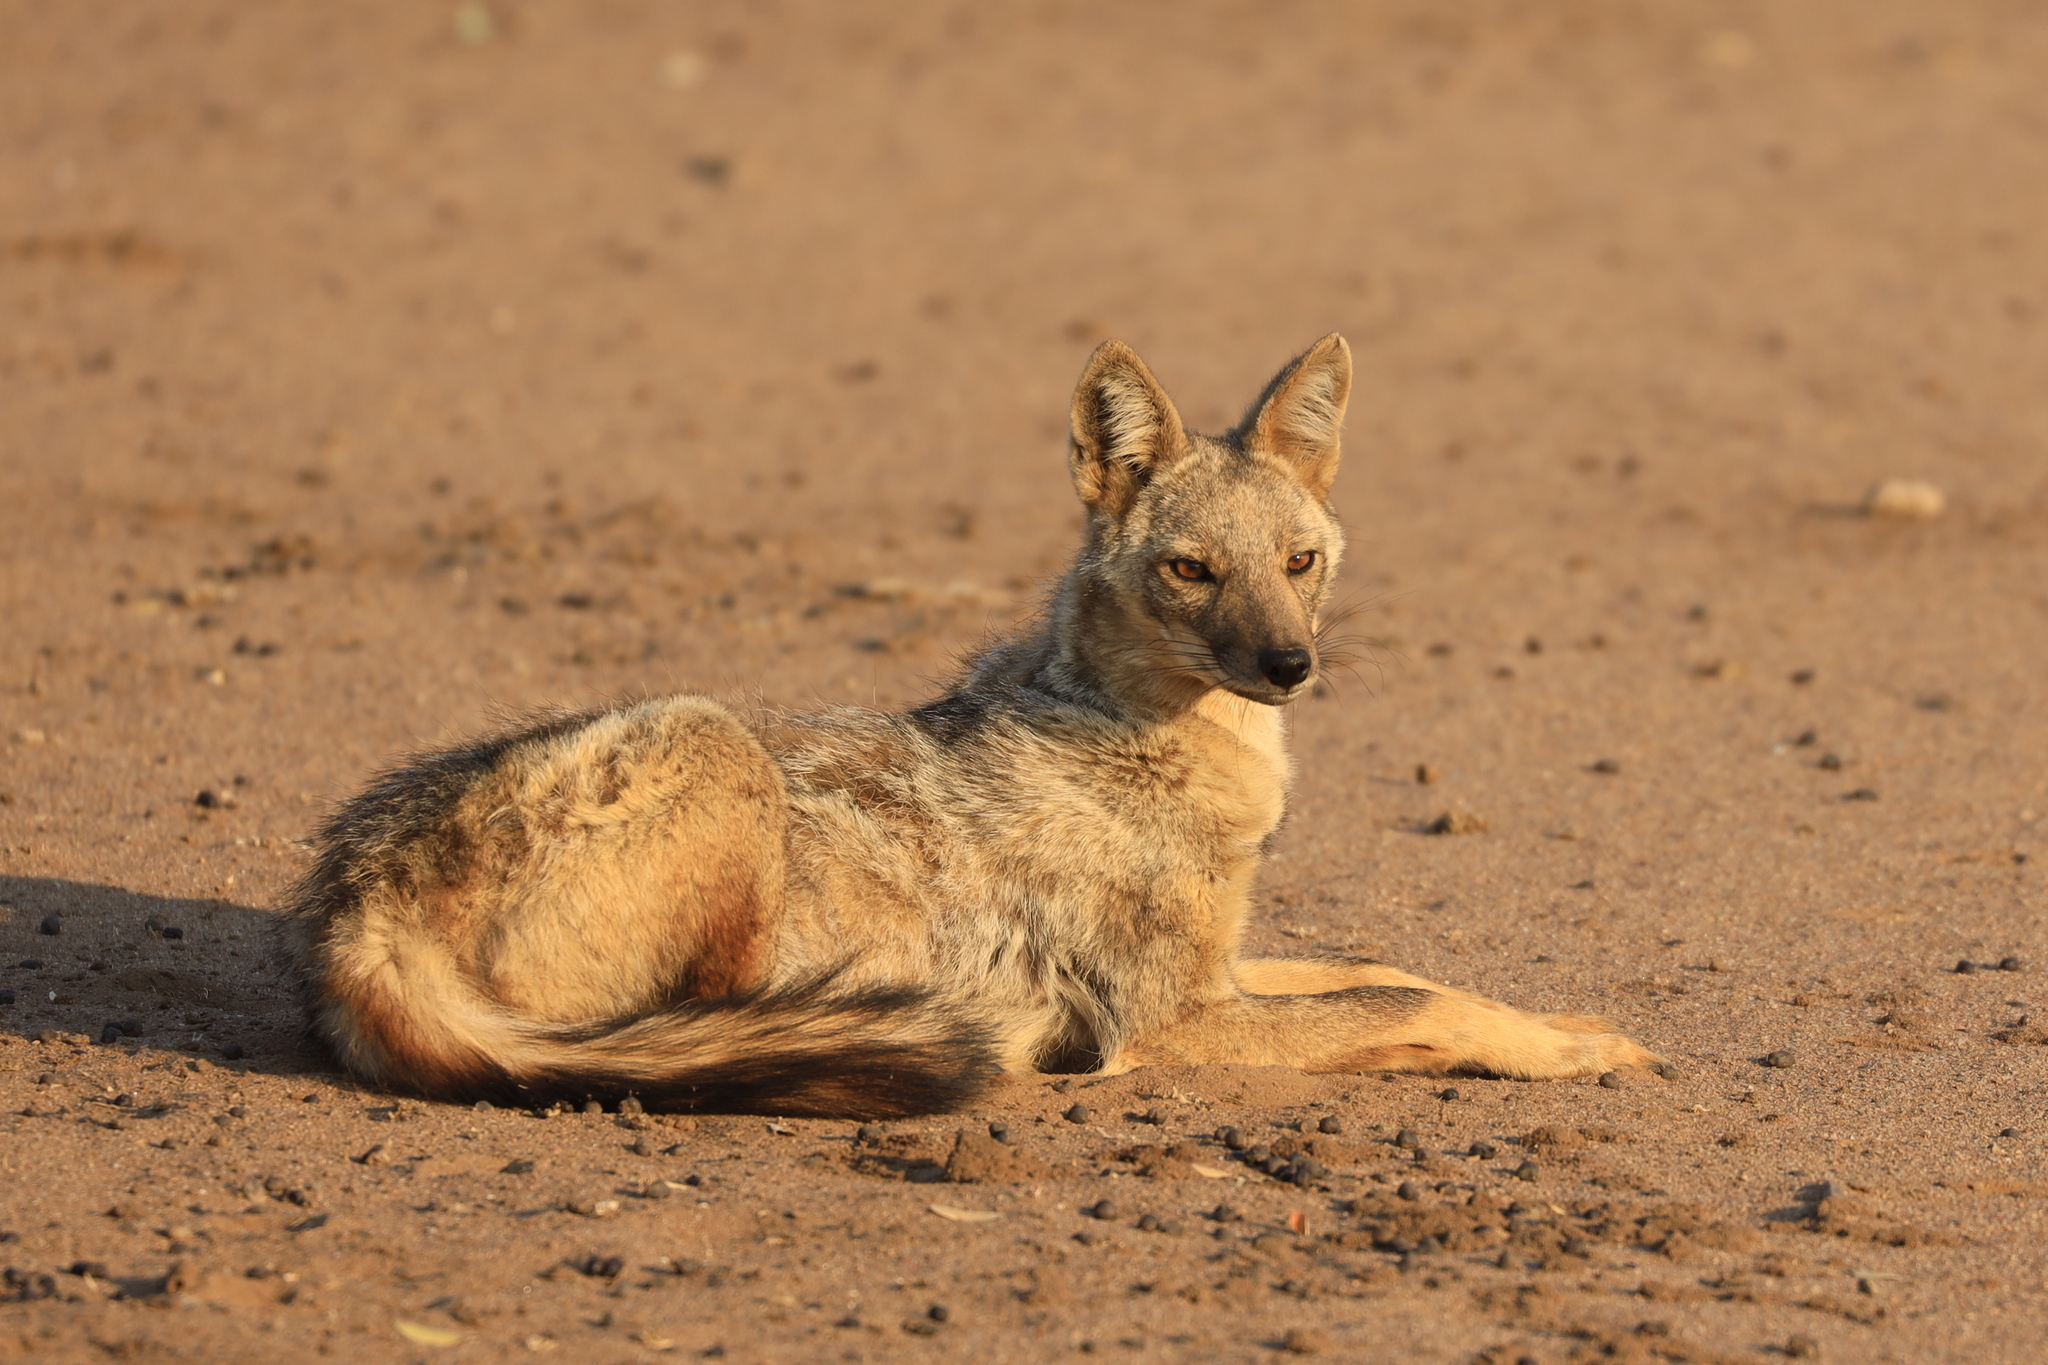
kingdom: Animalia
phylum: Chordata
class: Mammalia
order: Carnivora
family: Canidae
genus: Lupulella
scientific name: Lupulella
